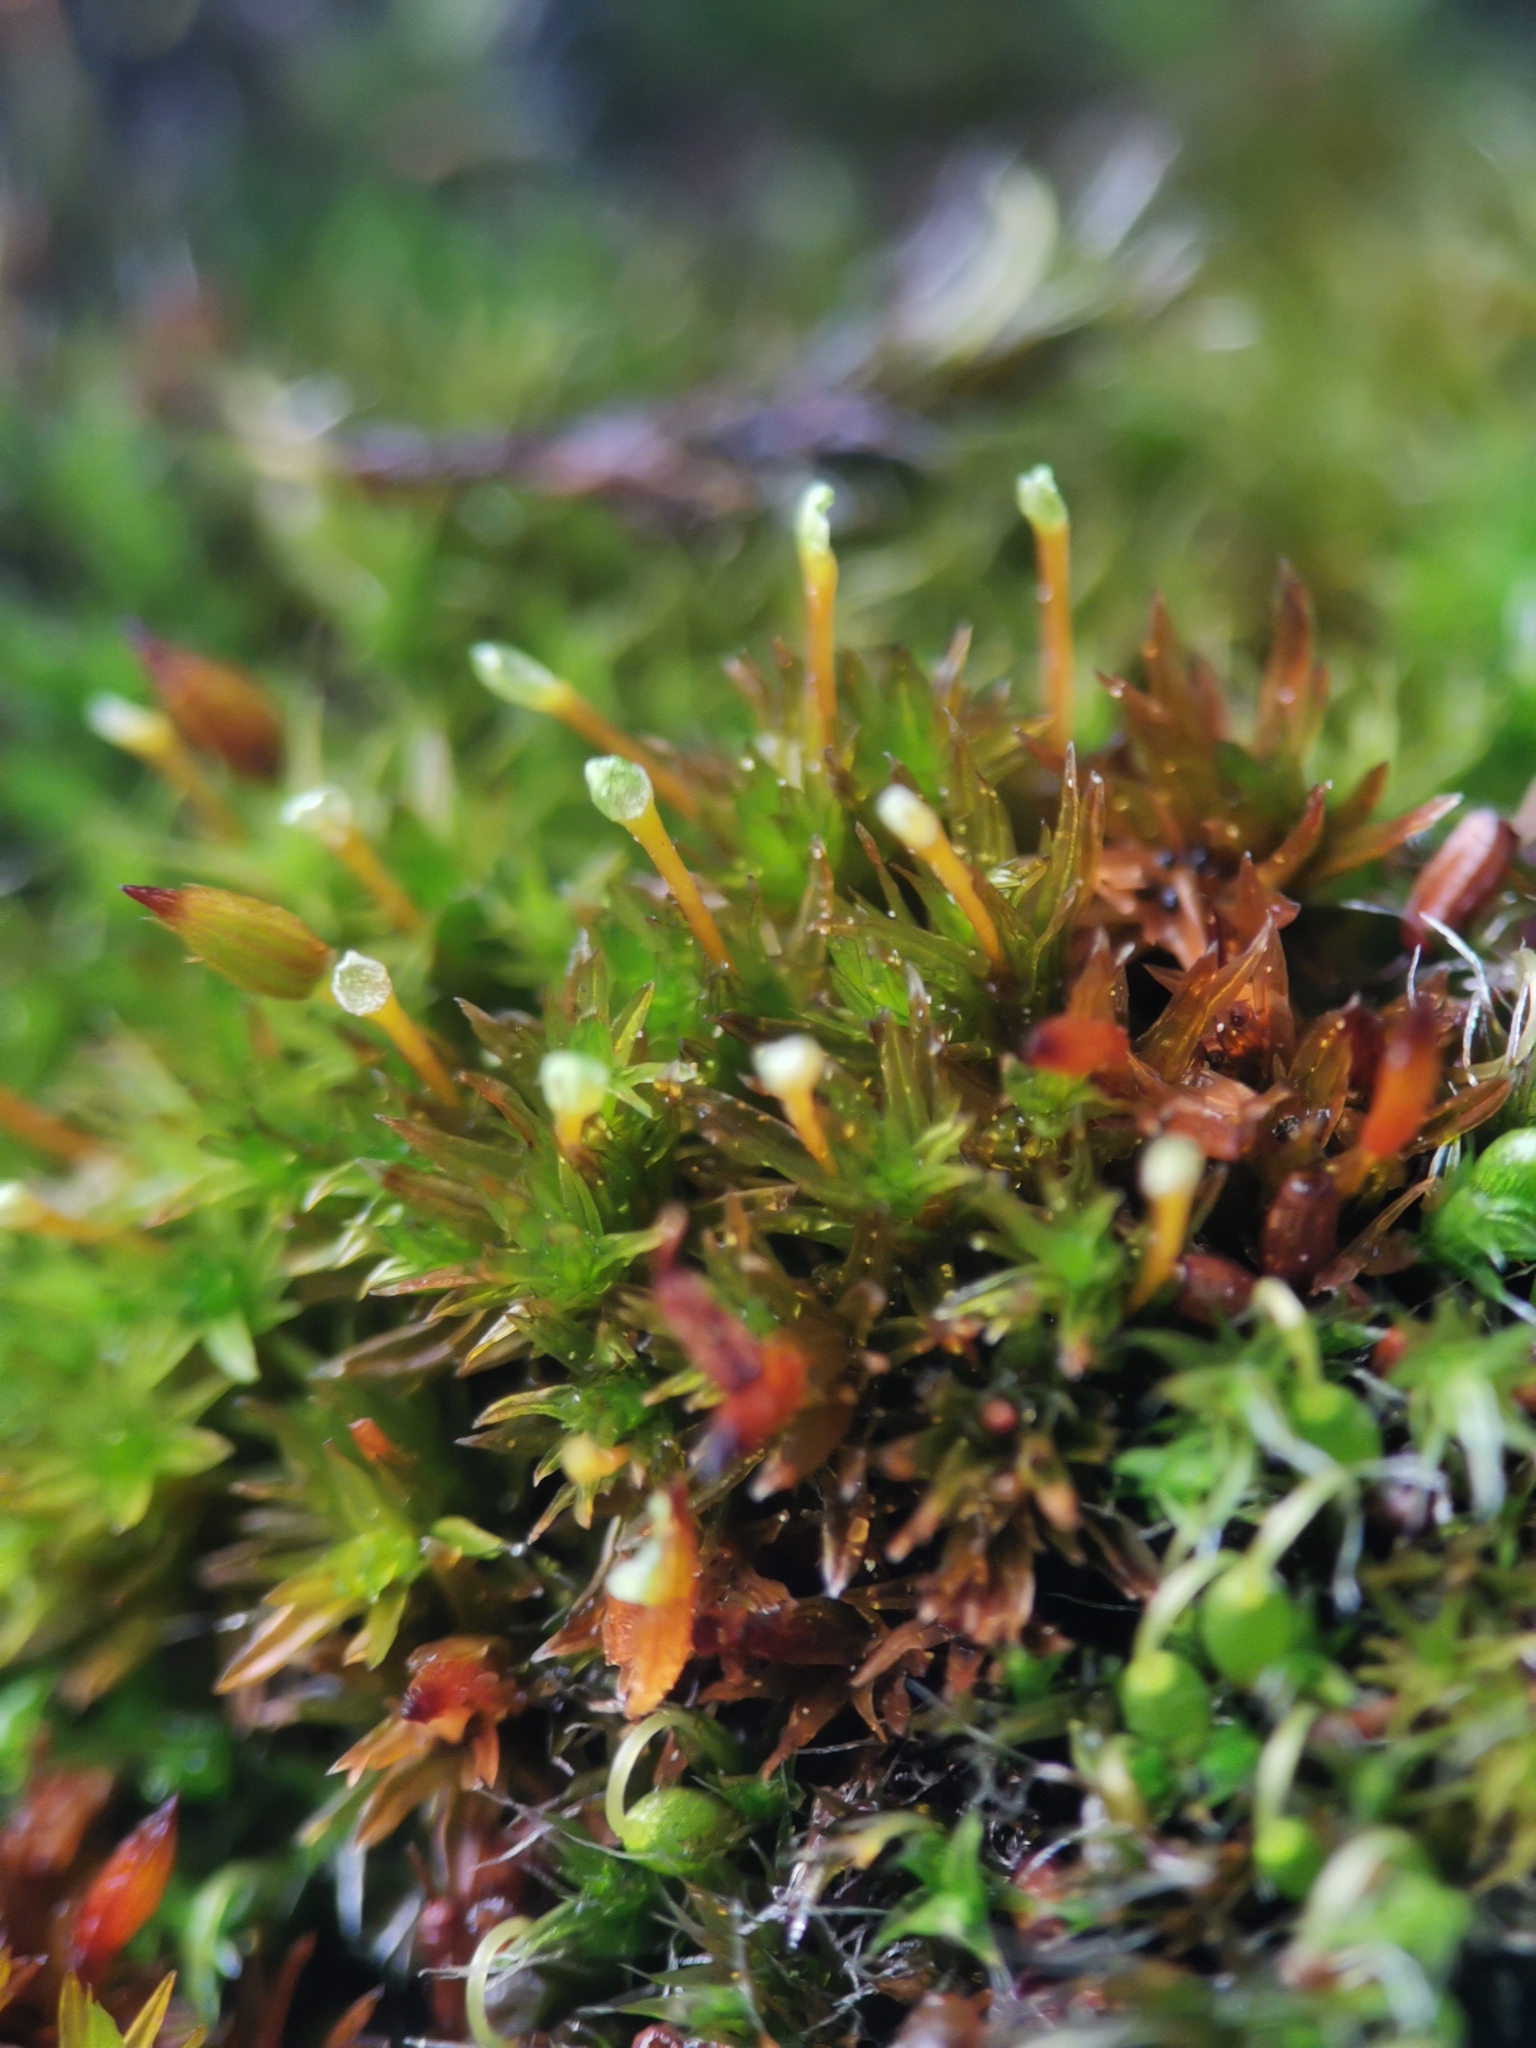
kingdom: Plantae
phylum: Bryophyta
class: Bryopsida
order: Orthotrichales
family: Orthotrichaceae
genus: Orthotrichum
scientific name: Orthotrichum anomalum
